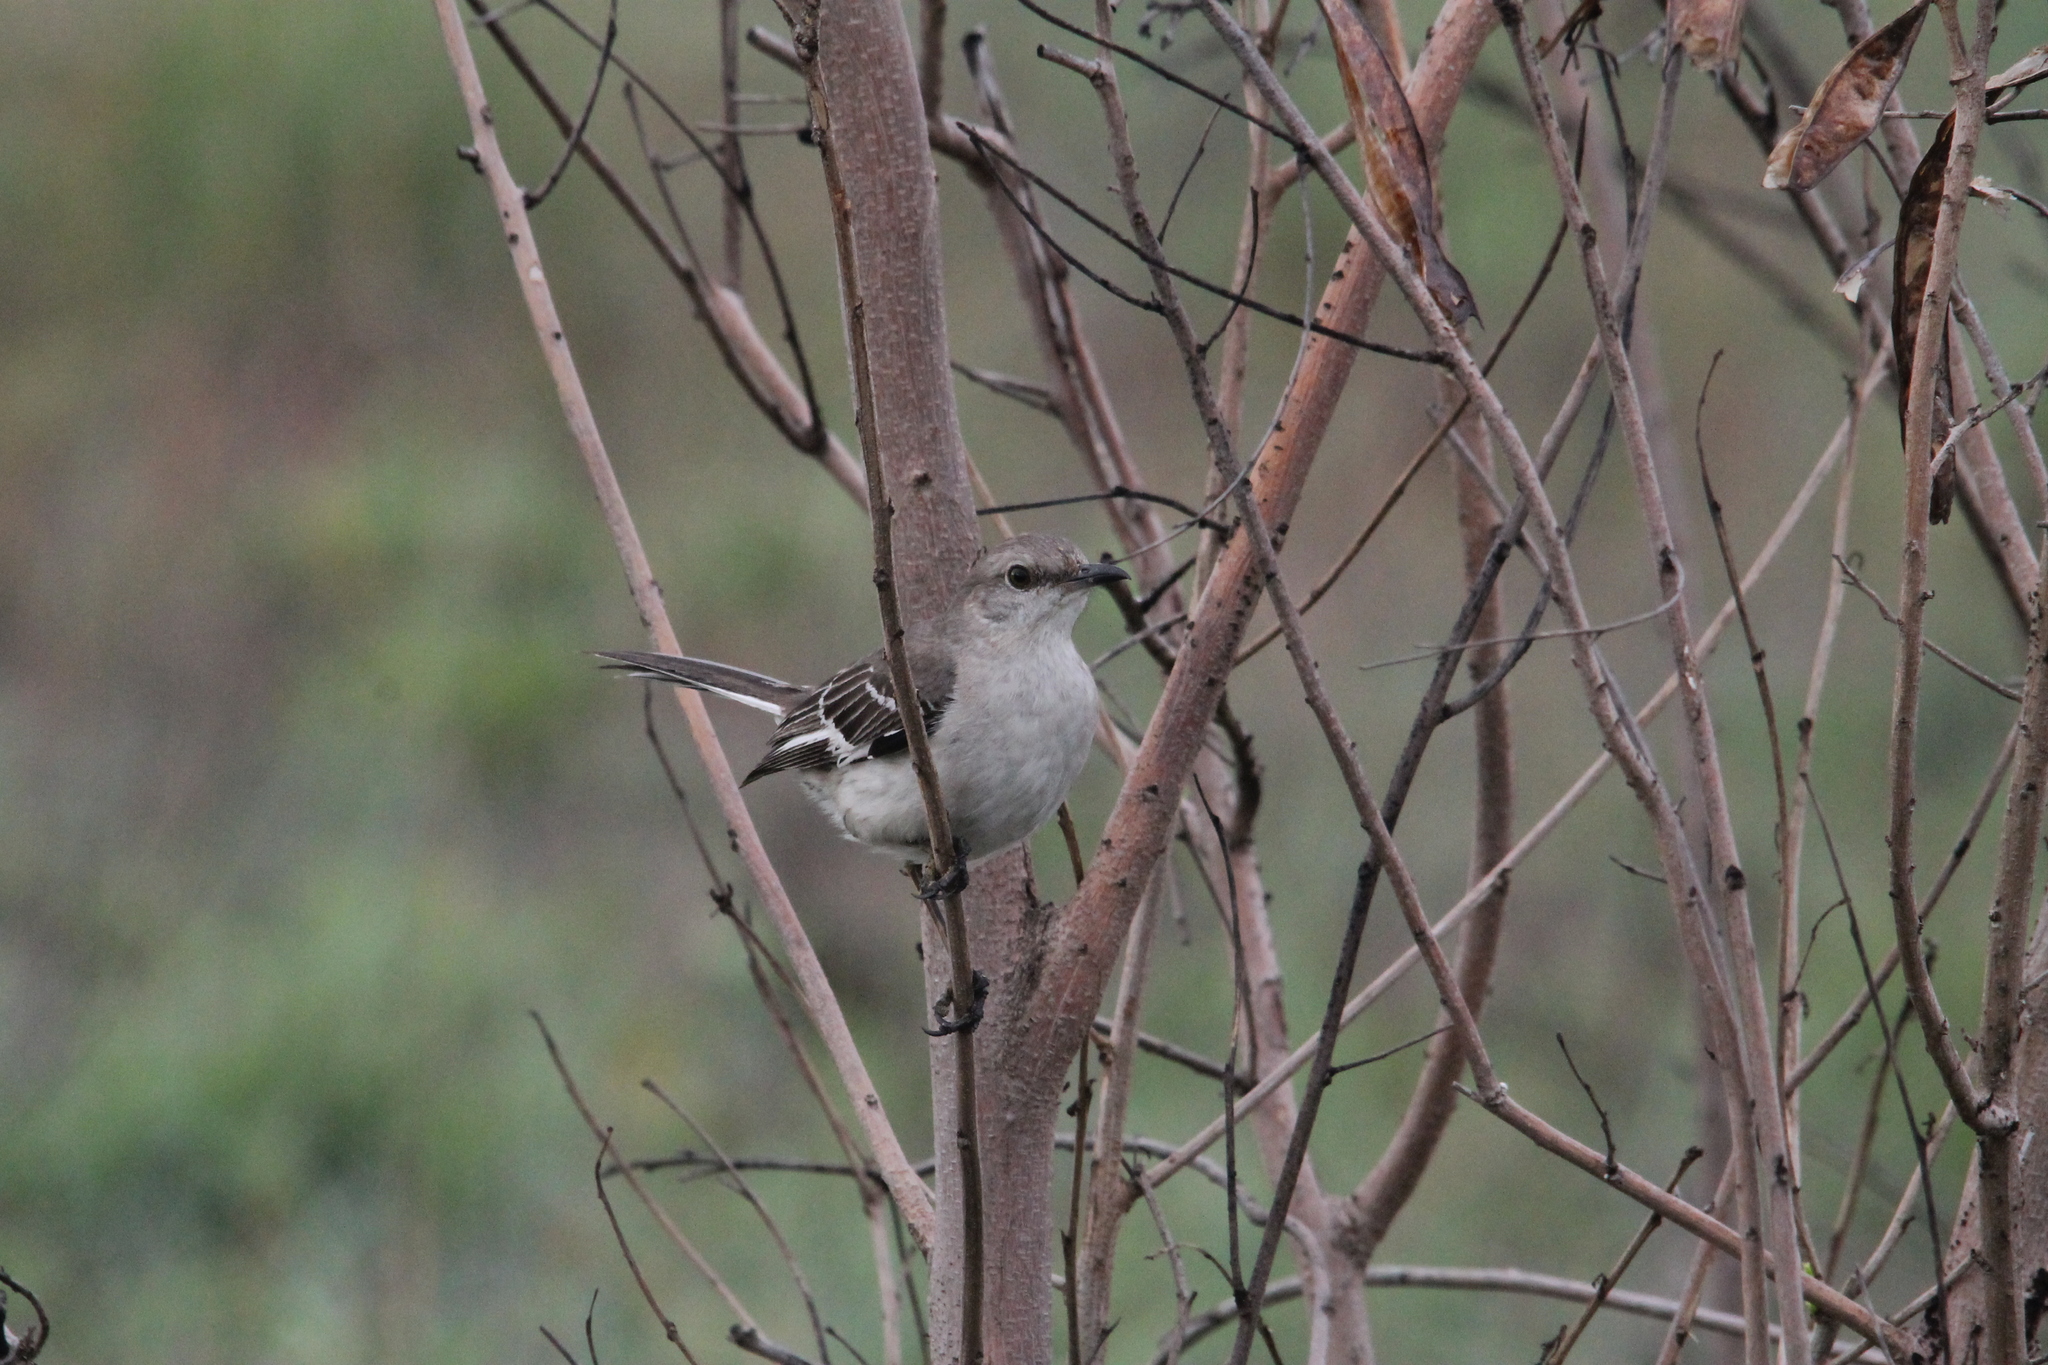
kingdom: Animalia
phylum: Chordata
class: Aves
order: Passeriformes
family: Mimidae
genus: Mimus
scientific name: Mimus polyglottos
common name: Northern mockingbird
